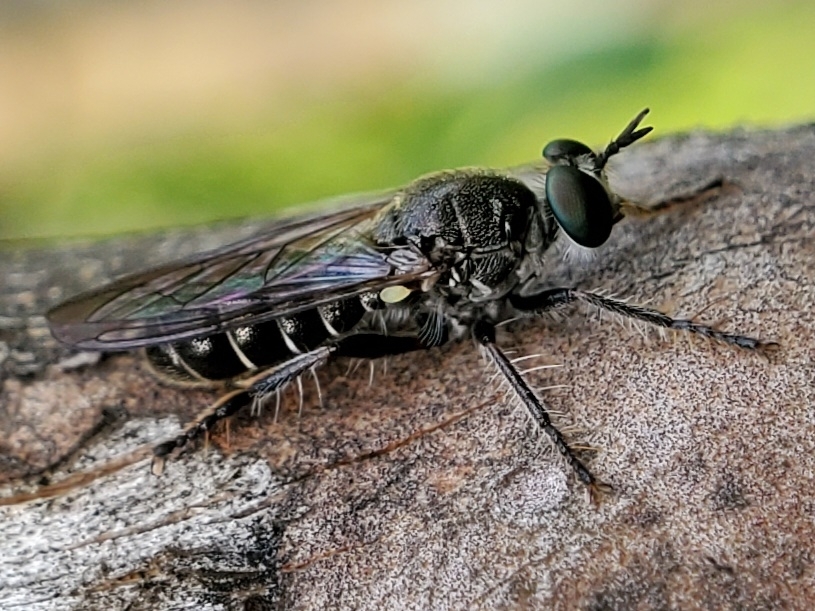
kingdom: Animalia
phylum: Arthropoda
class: Insecta
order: Diptera
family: Asilidae
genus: Atomosia
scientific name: Atomosia puella
